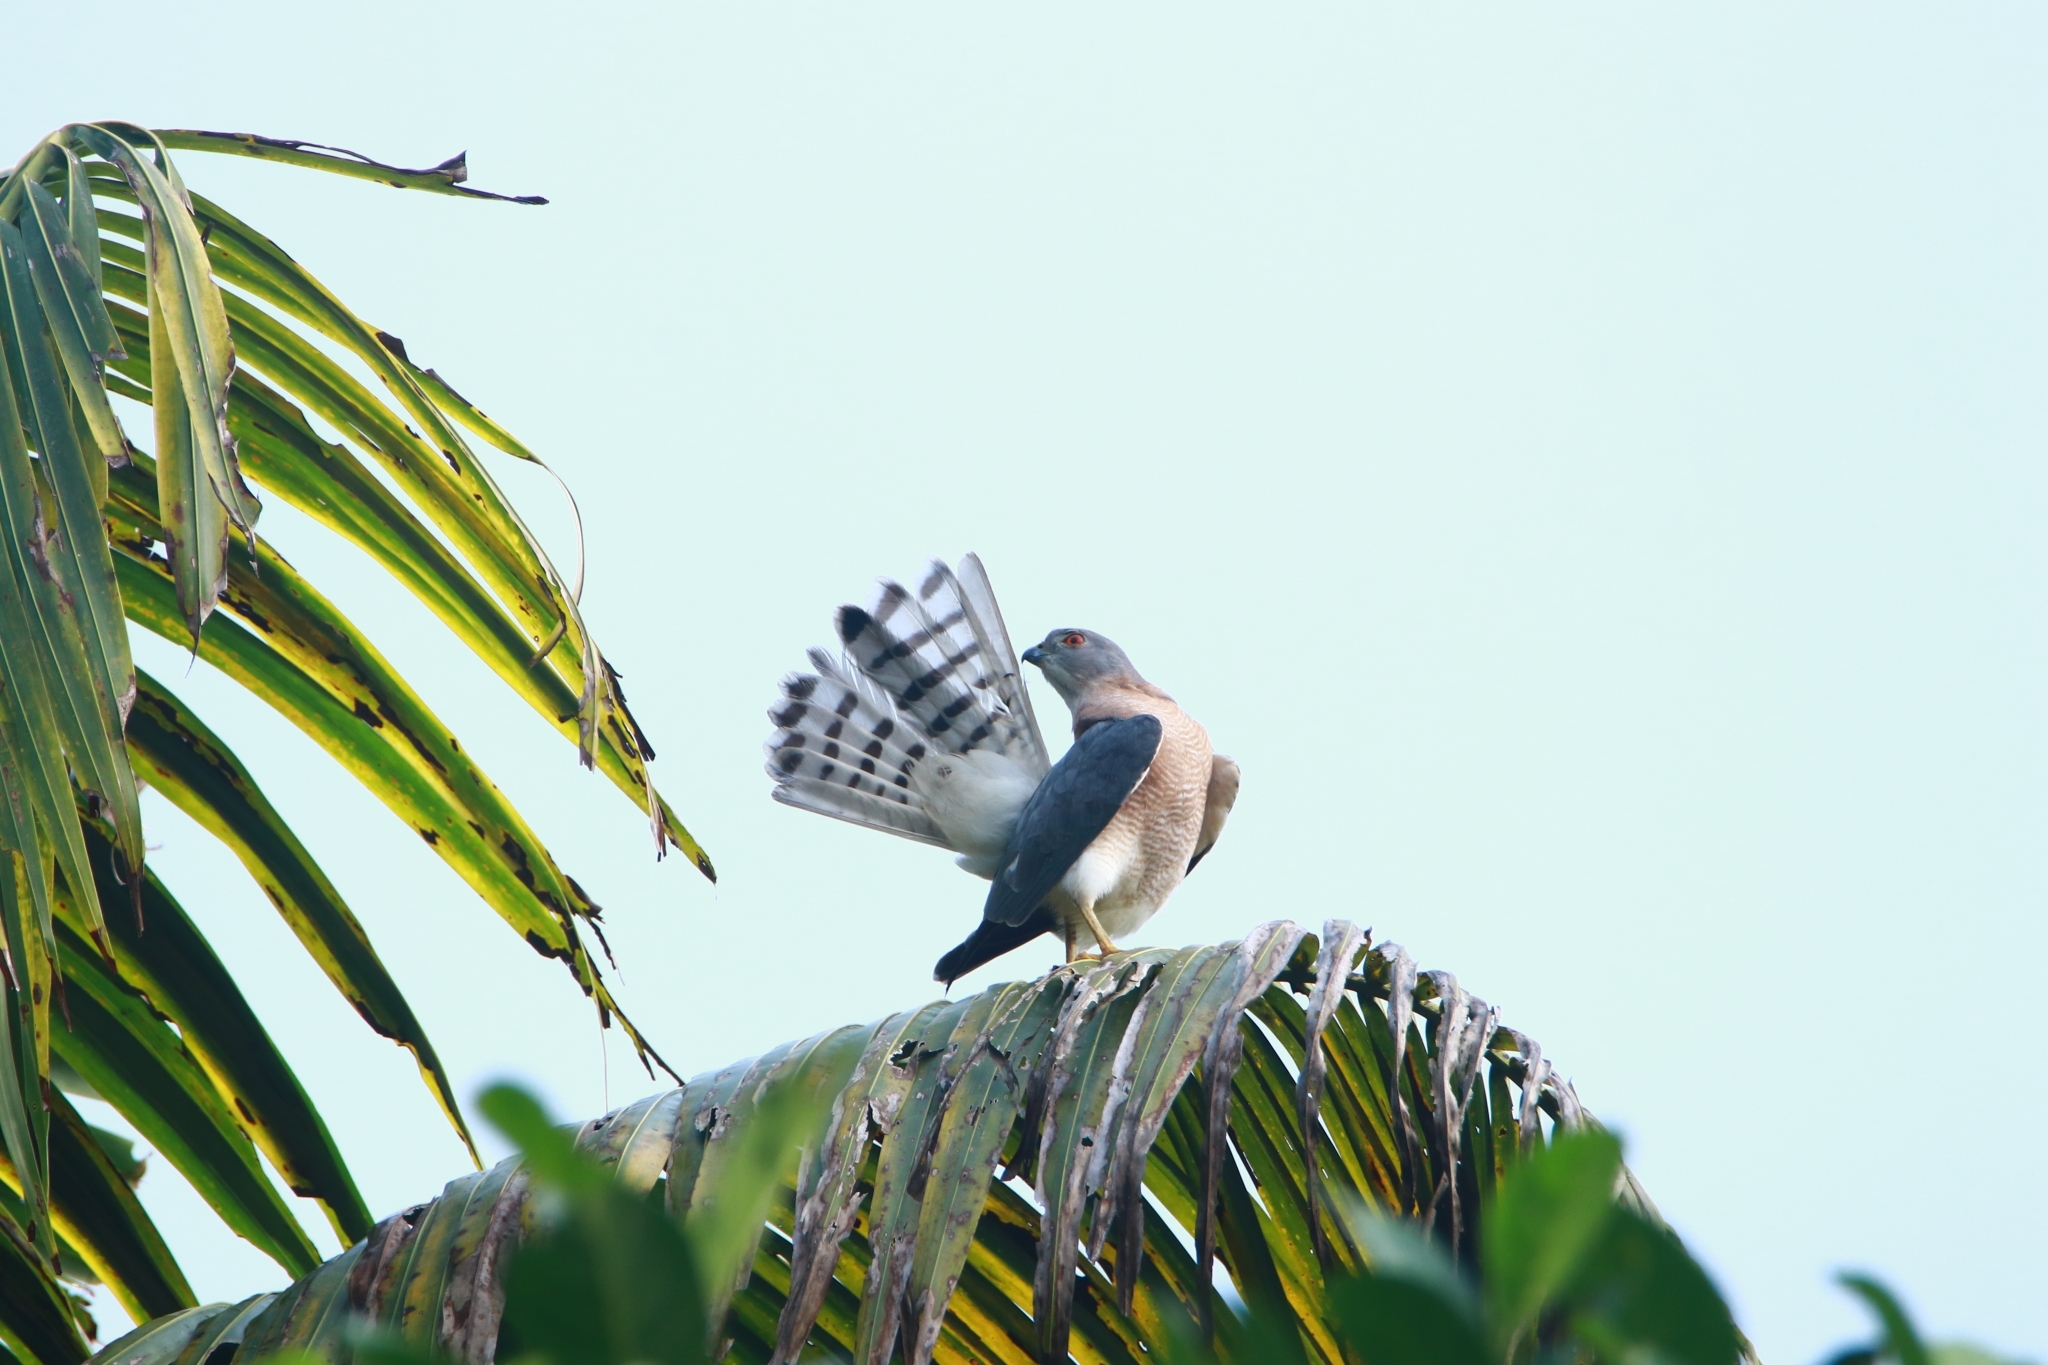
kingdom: Animalia
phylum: Chordata
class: Aves
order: Accipitriformes
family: Accipitridae
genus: Accipiter
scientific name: Accipiter badius
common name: Shikra
